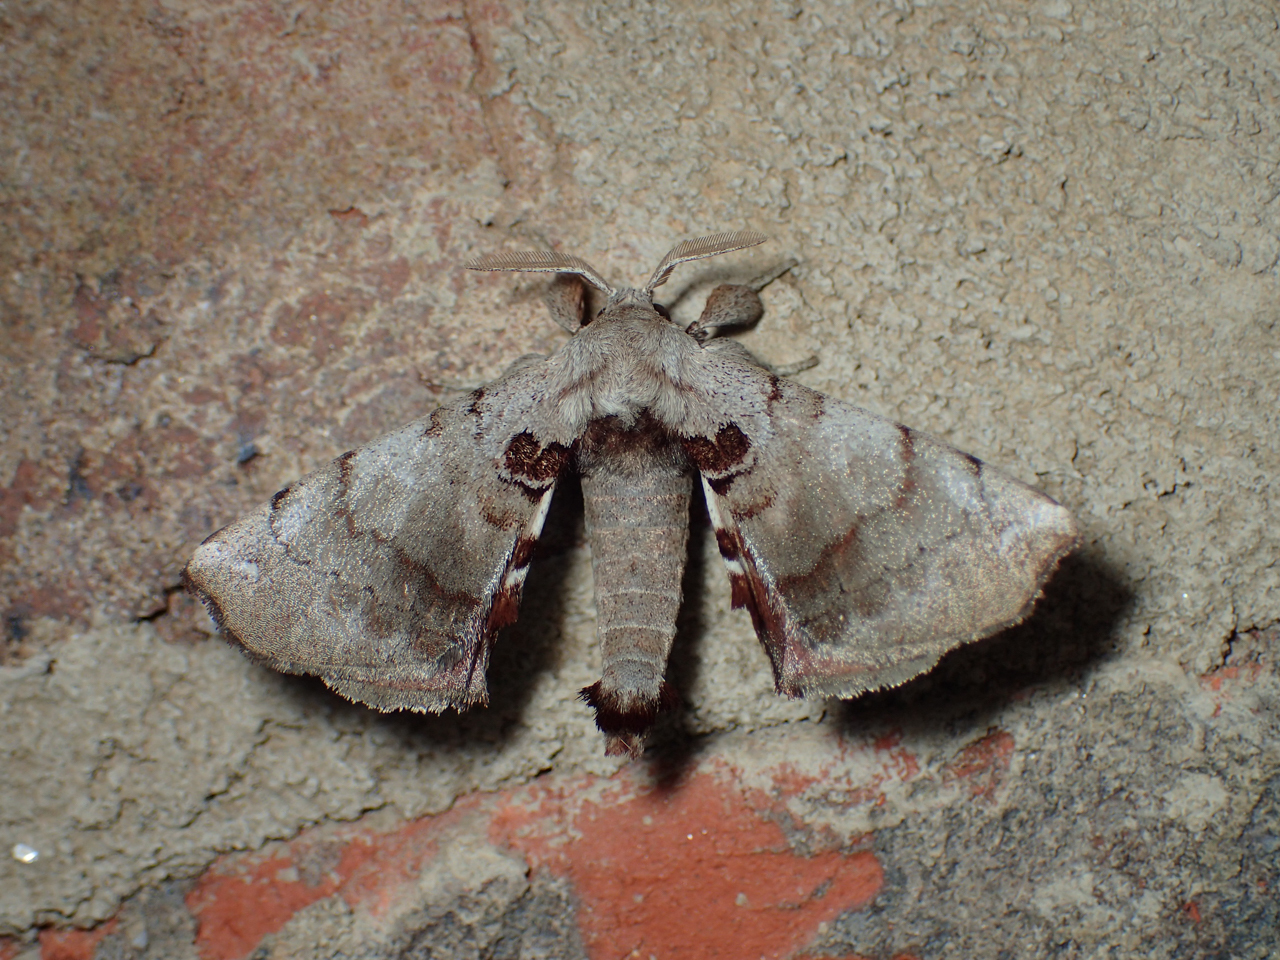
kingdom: Animalia
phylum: Arthropoda
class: Insecta
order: Lepidoptera
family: Apatelodidae
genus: Hygrochroa
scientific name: Hygrochroa Apatelodes torrefacta
